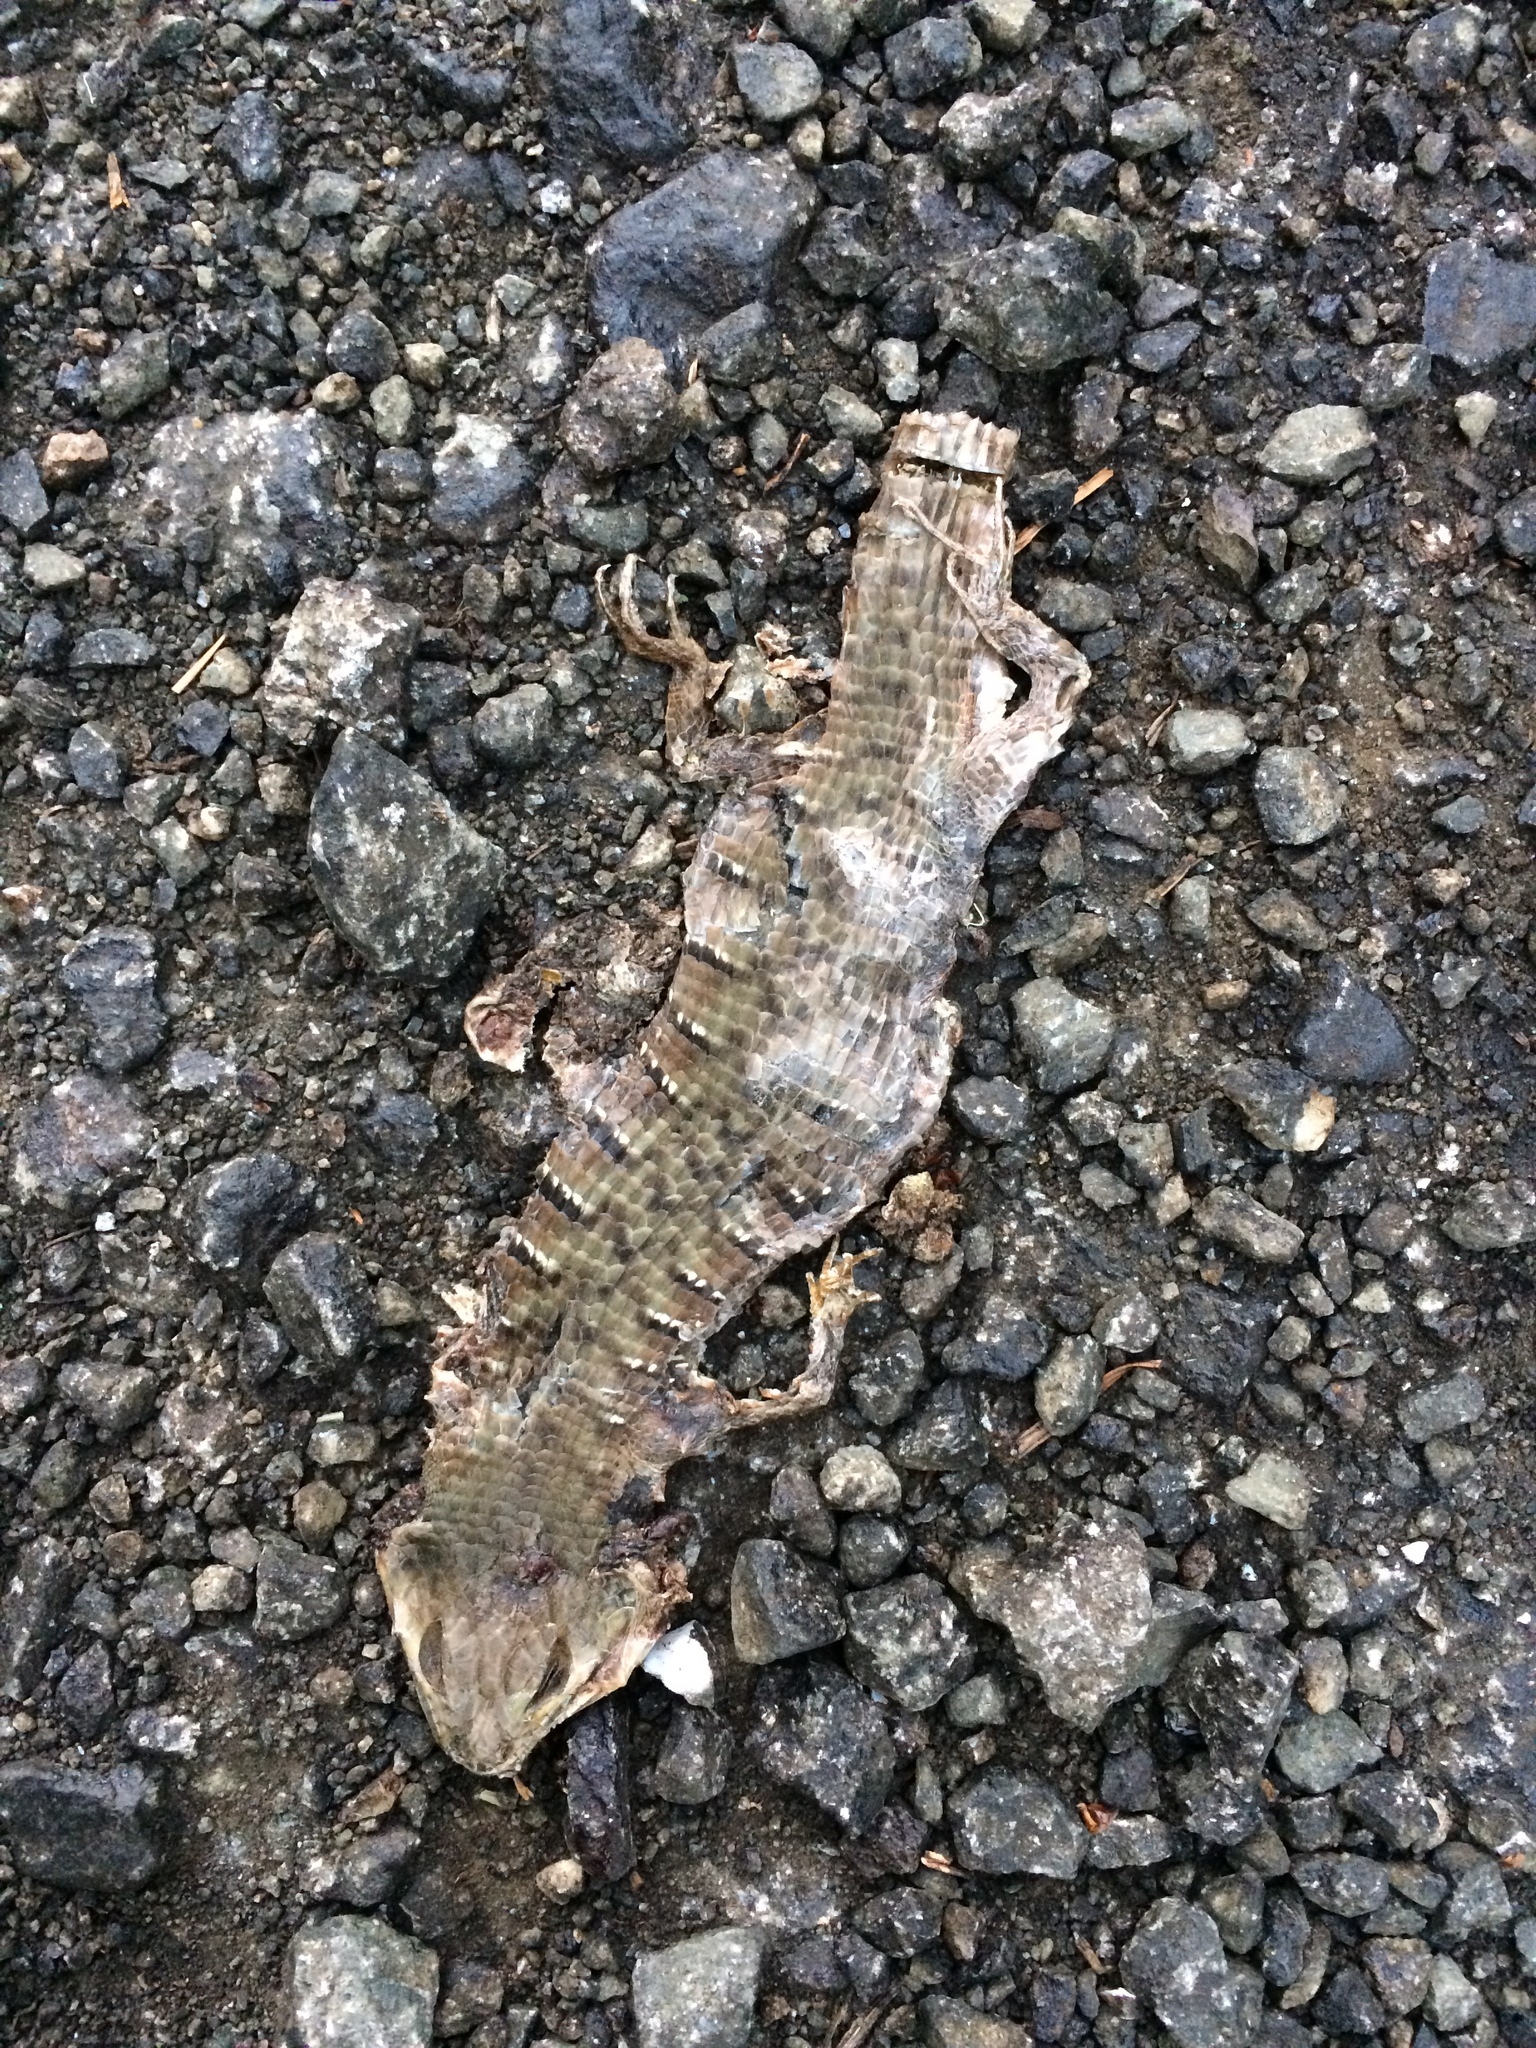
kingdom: Animalia
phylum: Chordata
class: Squamata
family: Anguidae
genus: Elgaria
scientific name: Elgaria multicarinata
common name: Southern alligator lizard
